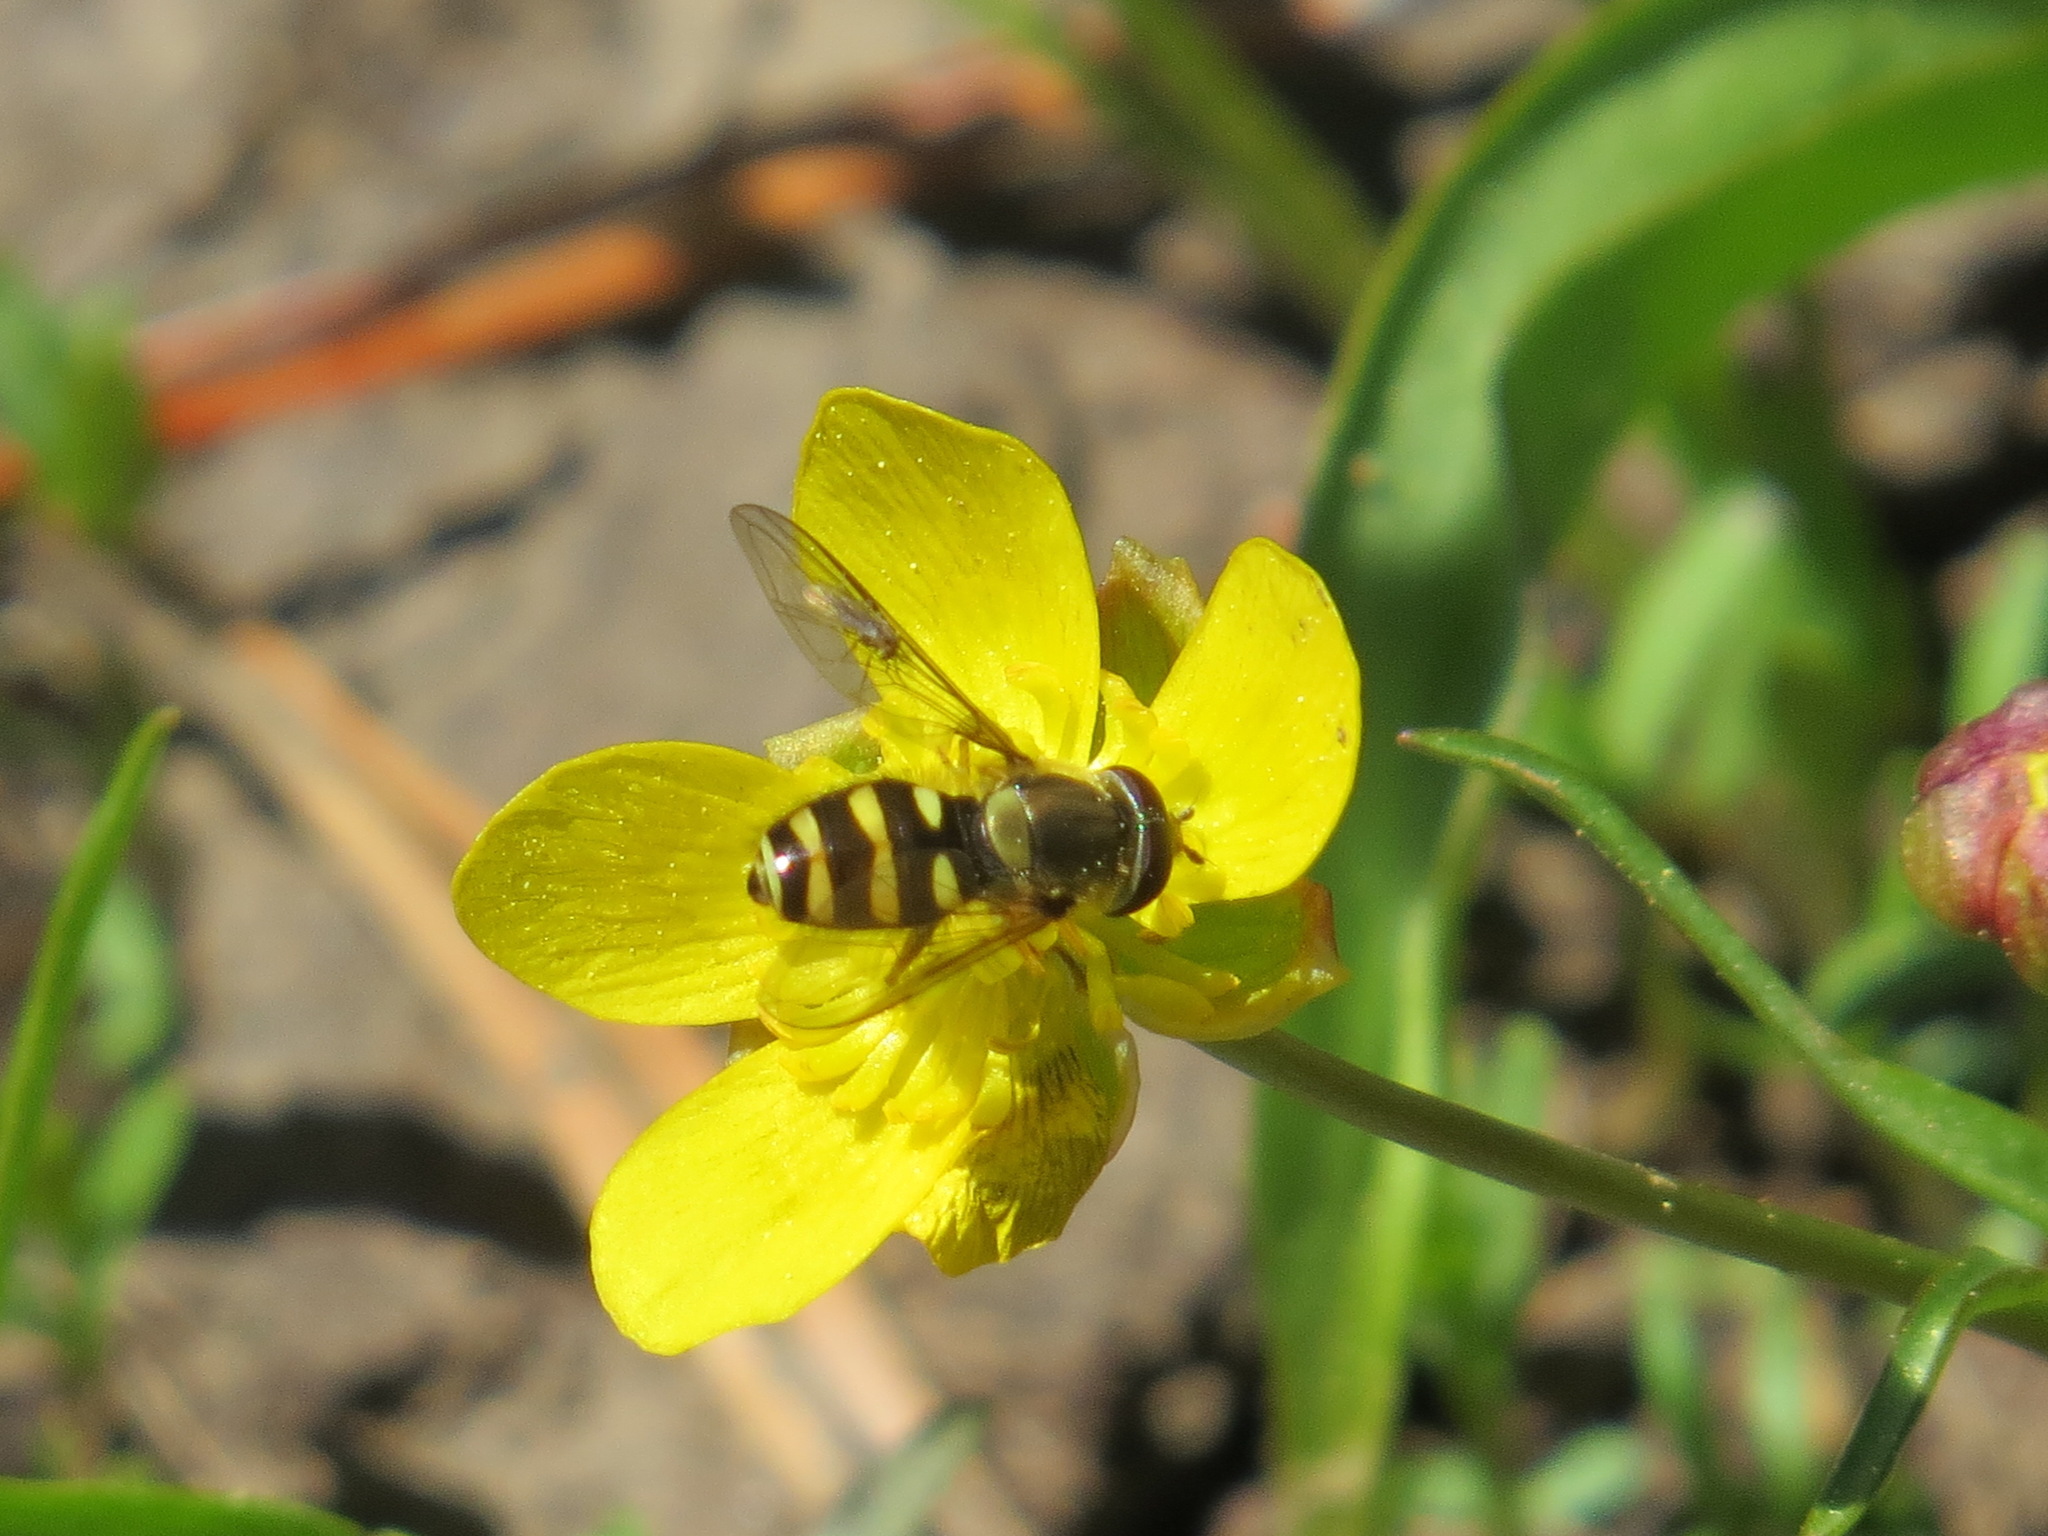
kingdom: Animalia
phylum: Arthropoda
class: Insecta
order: Diptera
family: Syrphidae
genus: Syrphus
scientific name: Syrphus opinator
